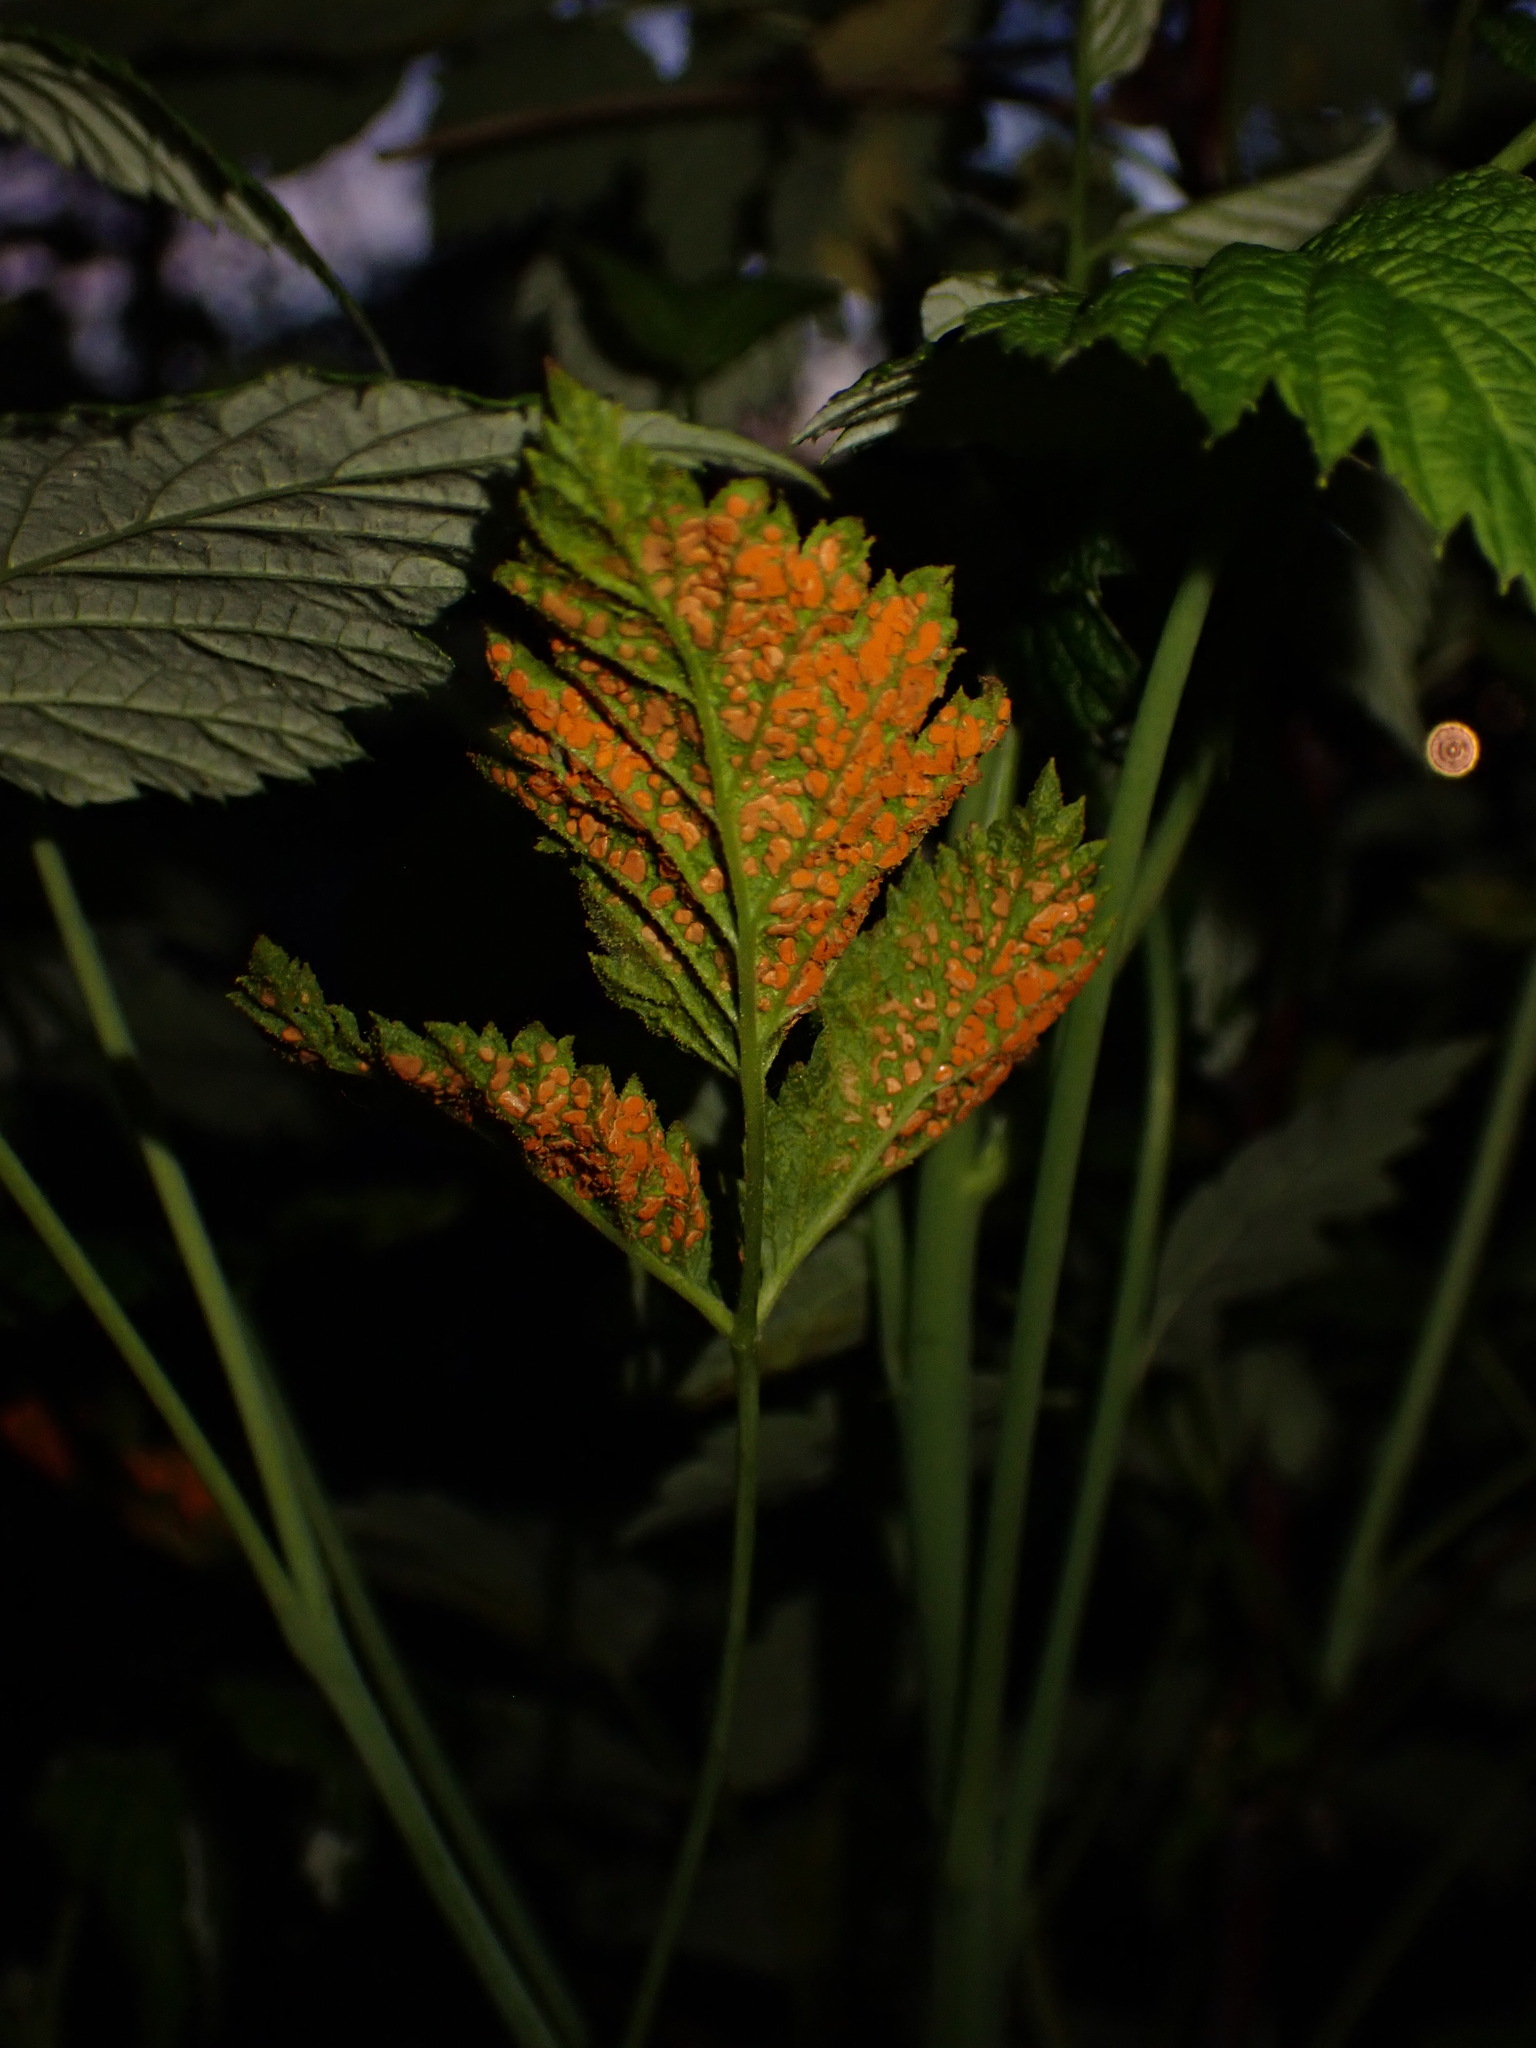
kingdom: Fungi
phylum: Basidiomycota
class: Pucciniomycetes
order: Pucciniales
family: Phragmidiaceae
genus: Arthuriomyces
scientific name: Arthuriomyces peckianus
